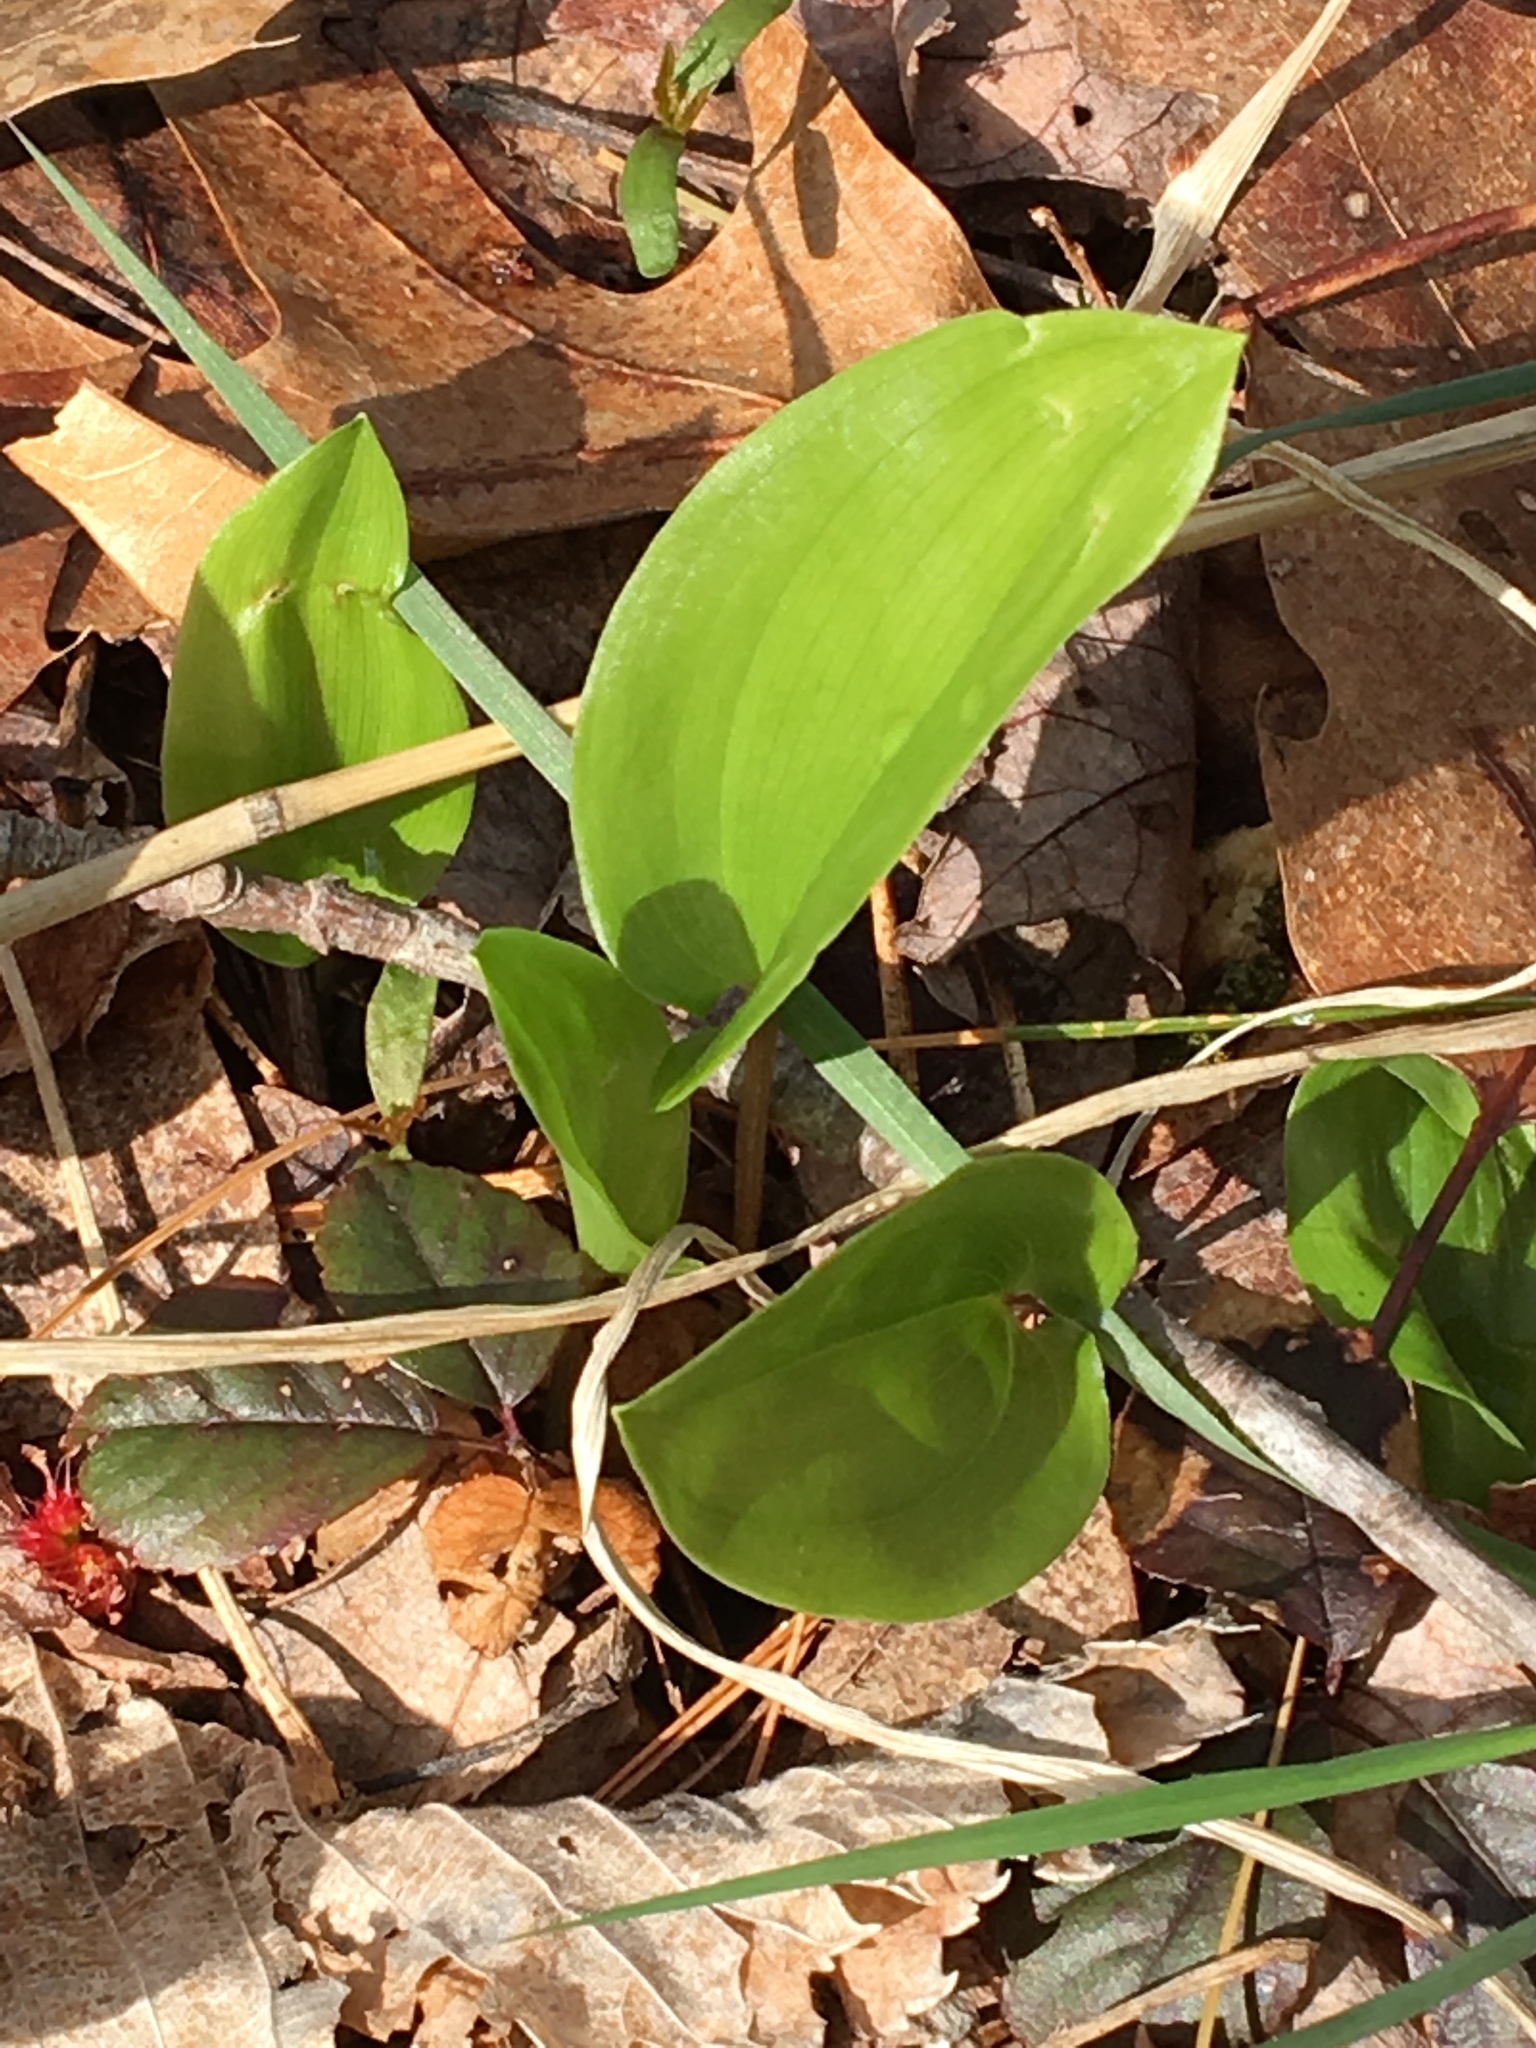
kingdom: Plantae
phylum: Tracheophyta
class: Liliopsida
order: Asparagales
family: Asparagaceae
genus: Maianthemum
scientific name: Maianthemum canadense
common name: False lily-of-the-valley
